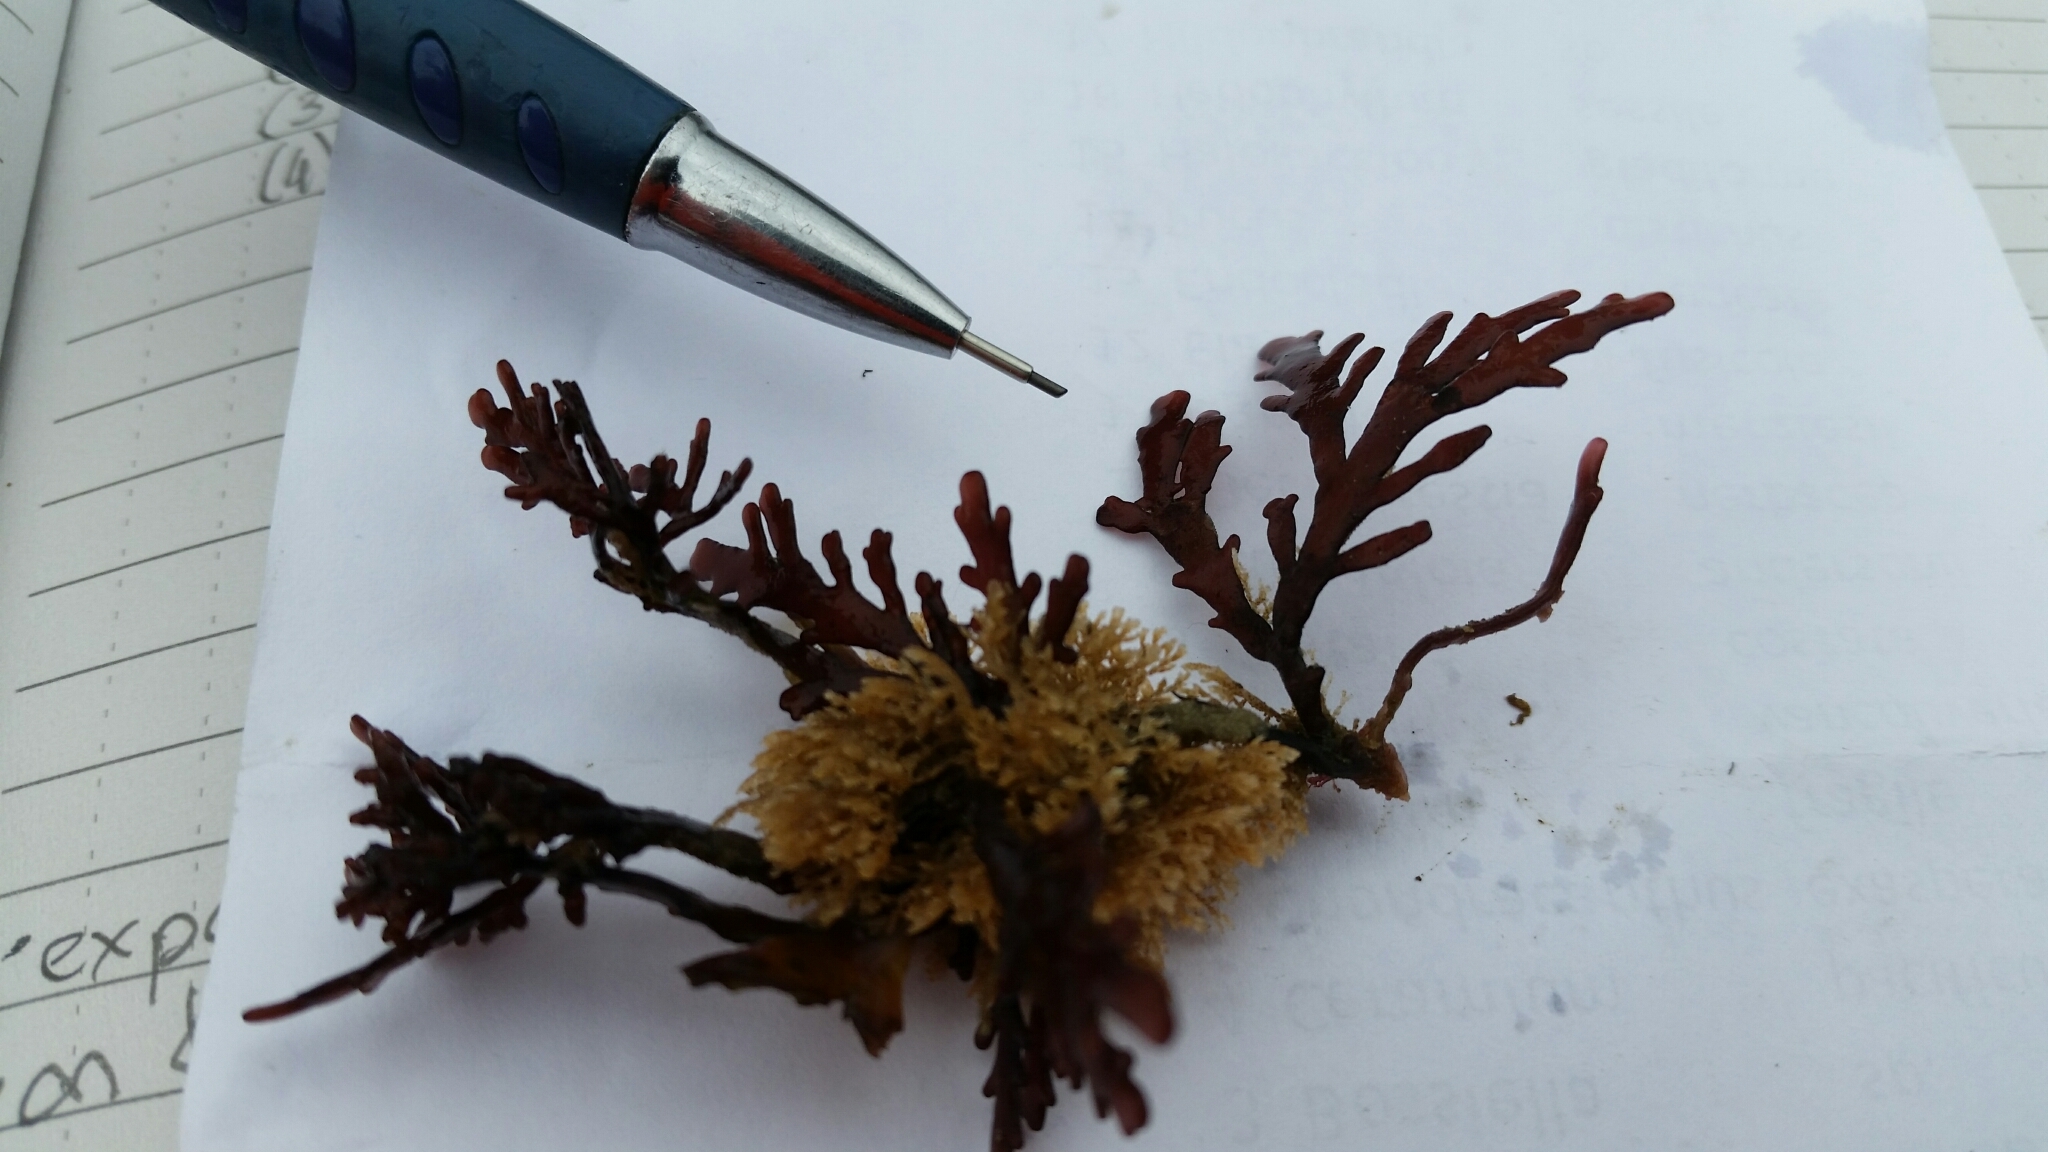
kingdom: Plantae
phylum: Rhodophyta
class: Florideophyceae
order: Ceramiales
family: Rhodomelaceae
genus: Osmundea
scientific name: Osmundea spectabilis
